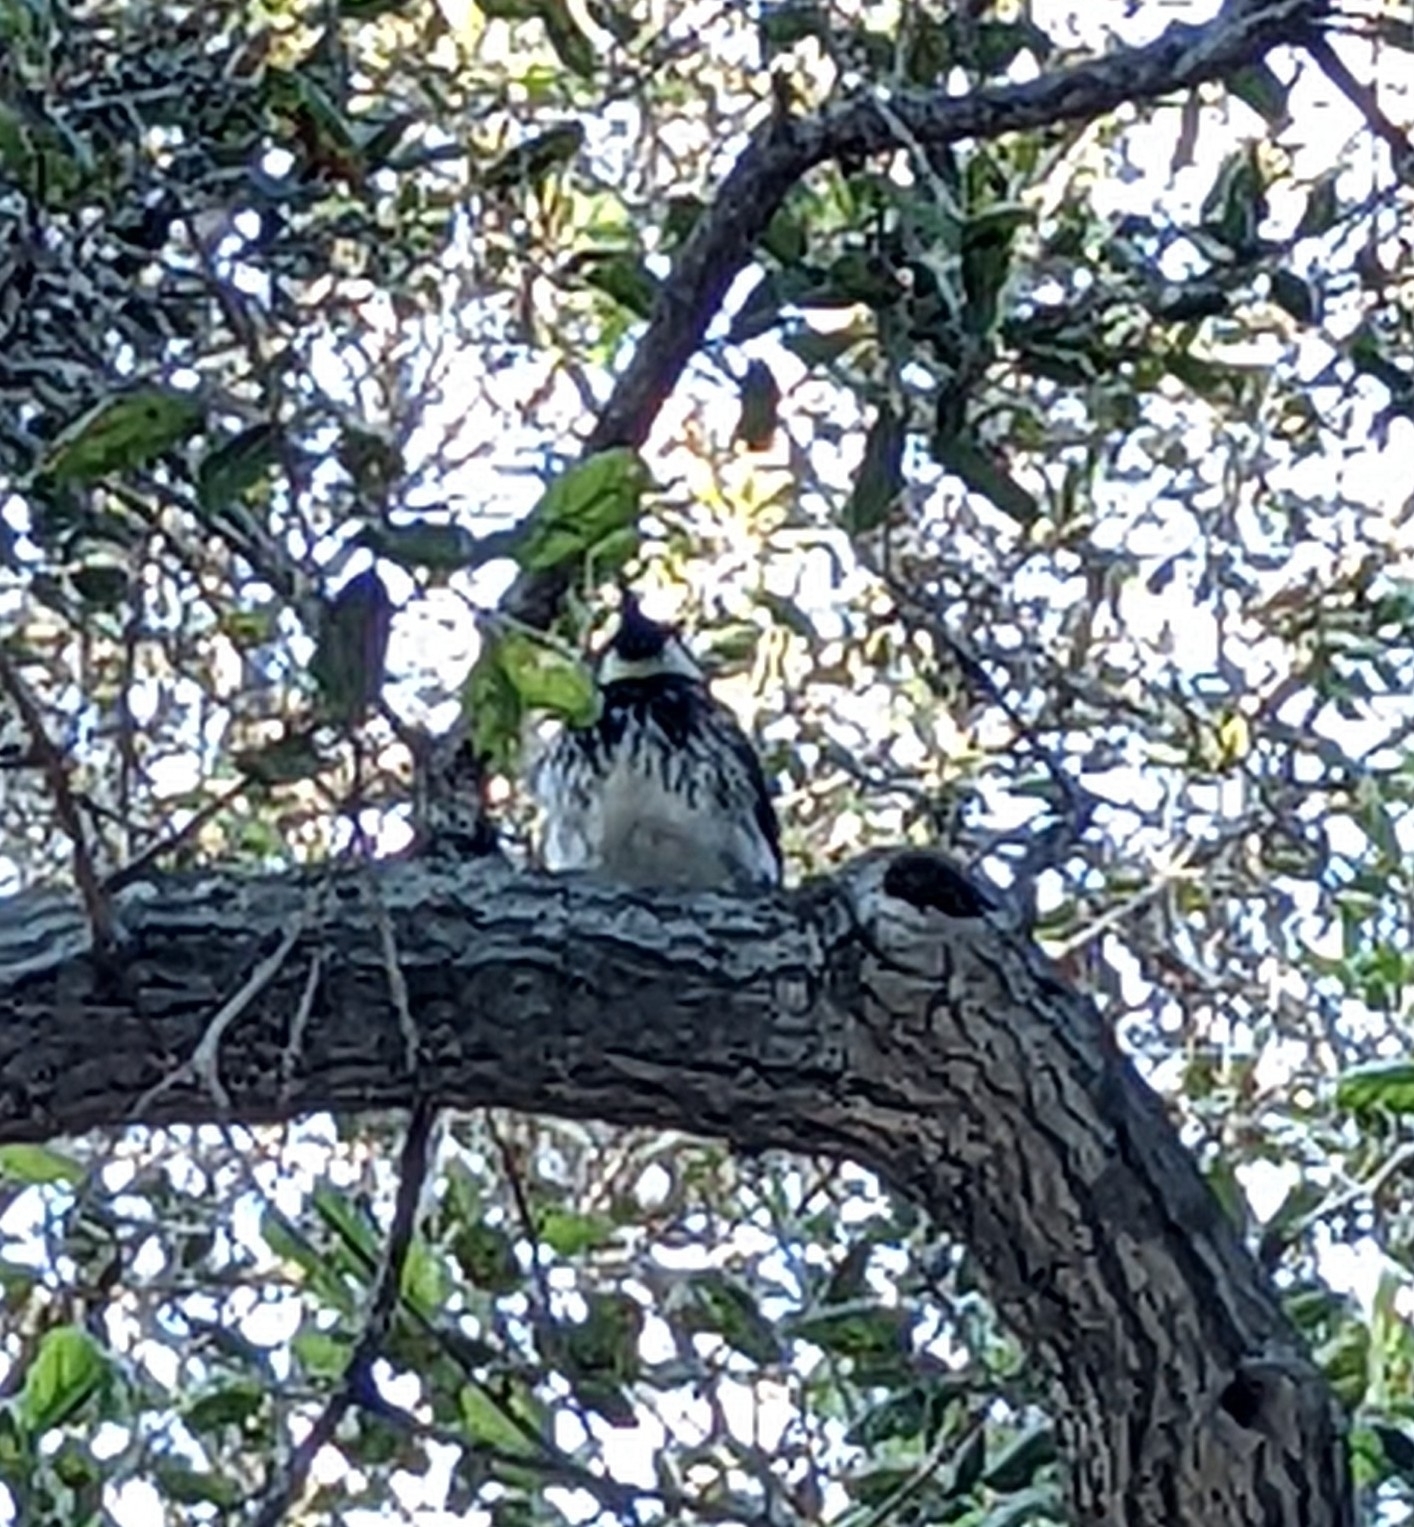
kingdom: Animalia
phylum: Chordata
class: Aves
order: Piciformes
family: Picidae
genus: Melanerpes
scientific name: Melanerpes formicivorus
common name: Acorn woodpecker
